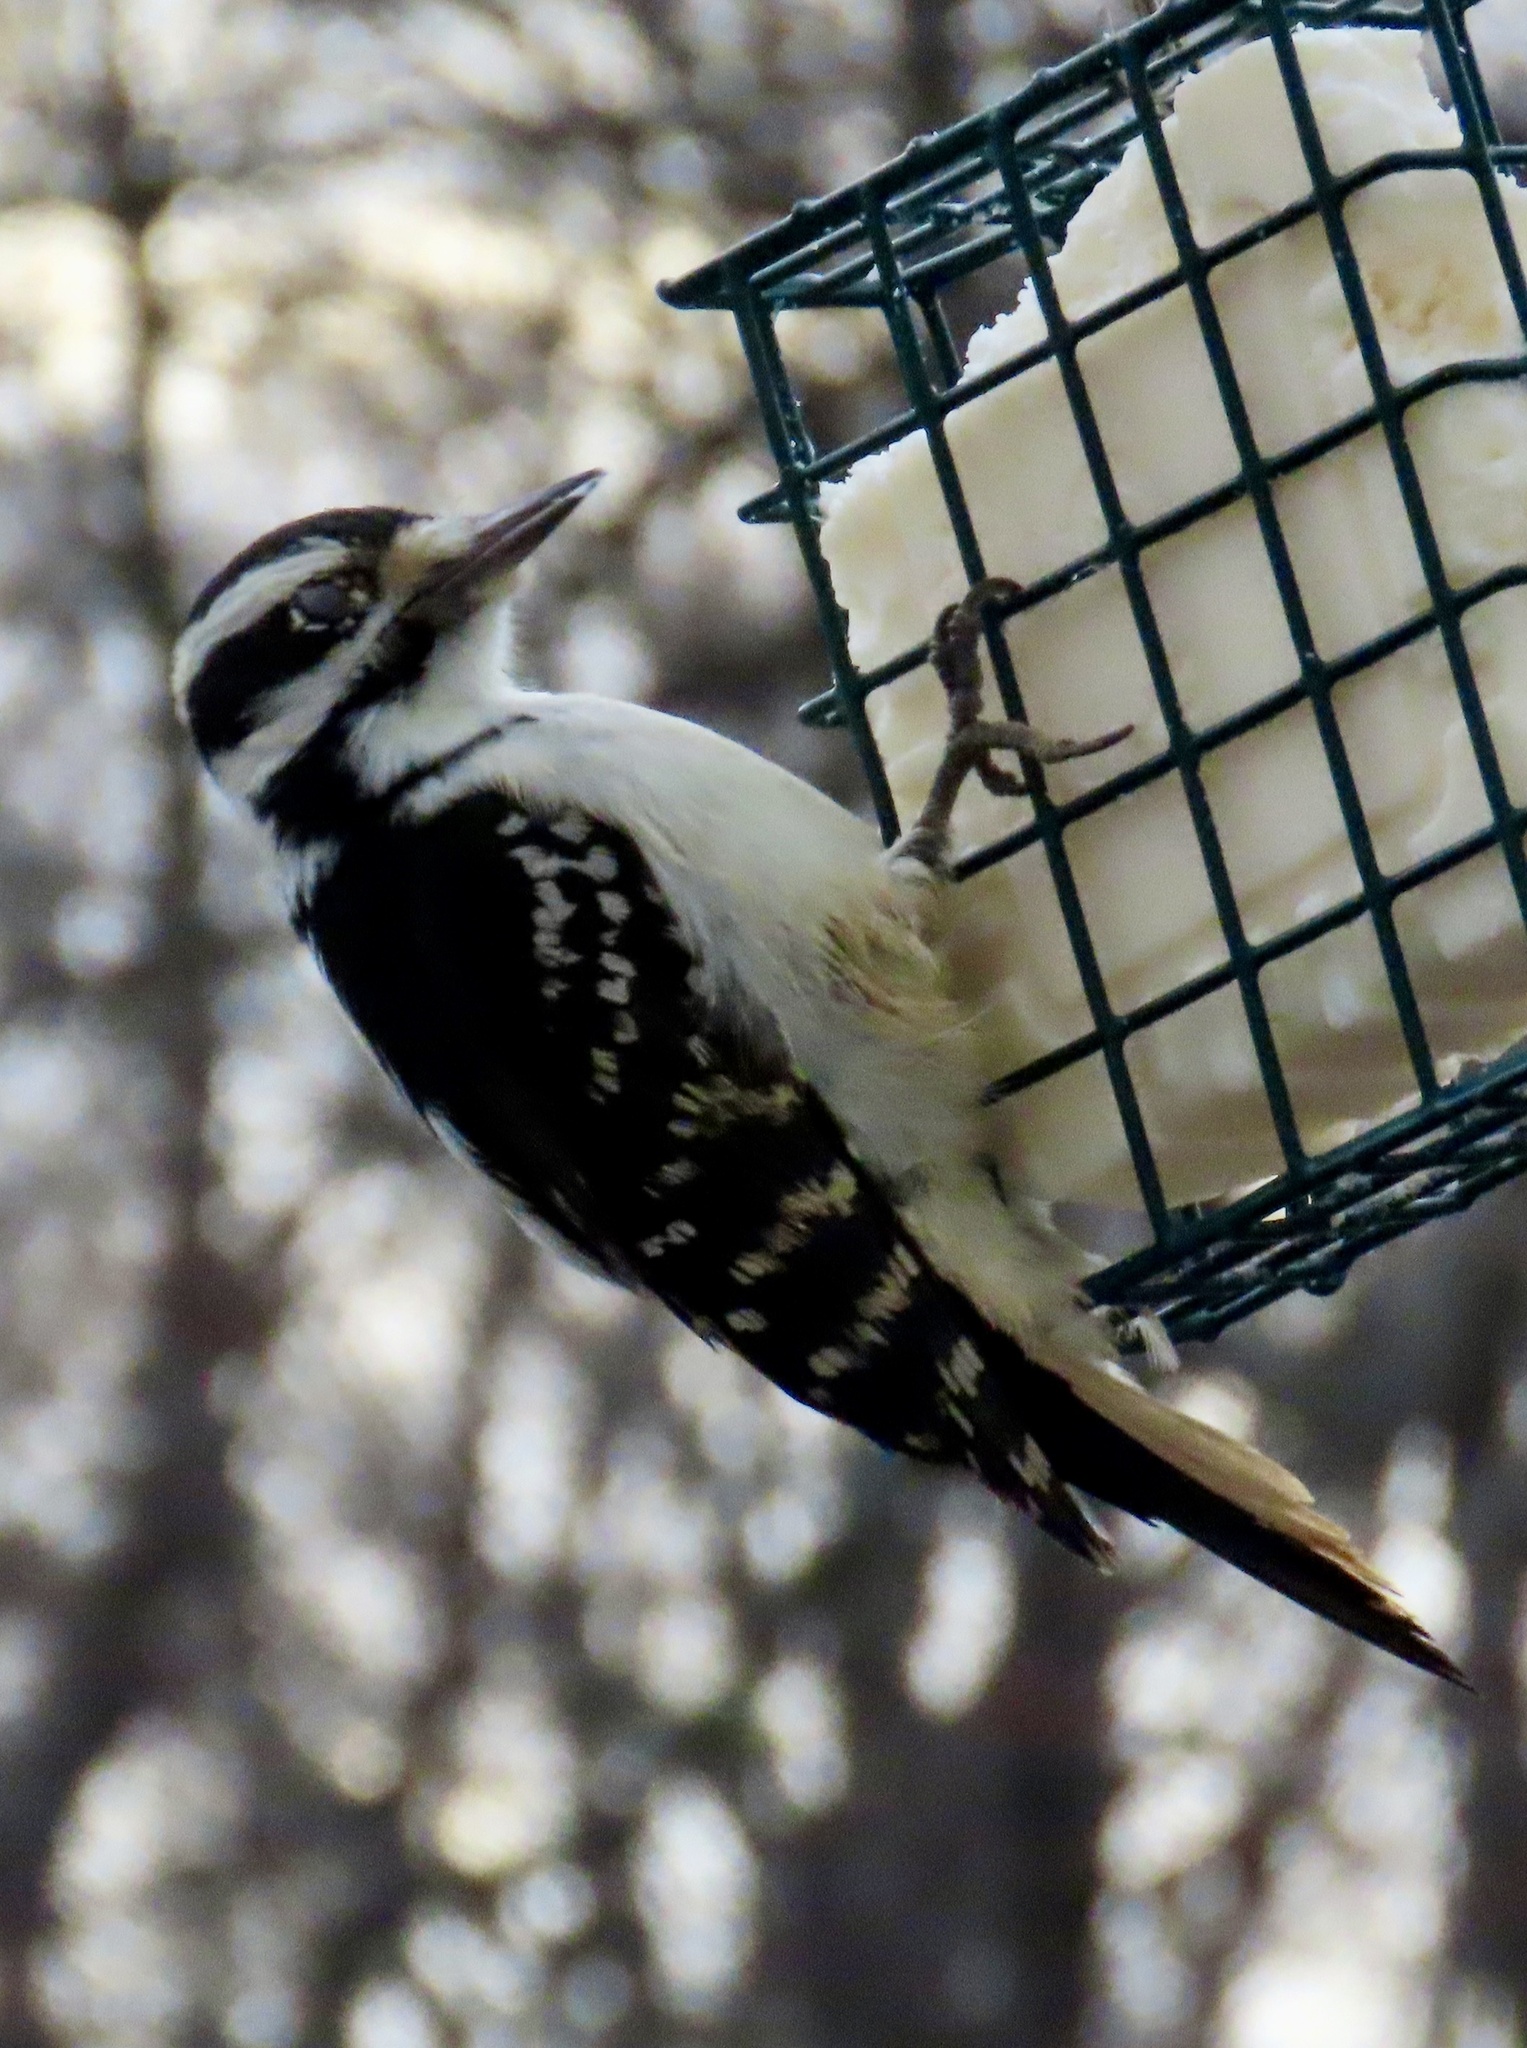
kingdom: Animalia
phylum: Chordata
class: Aves
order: Piciformes
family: Picidae
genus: Leuconotopicus
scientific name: Leuconotopicus villosus
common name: Hairy woodpecker
